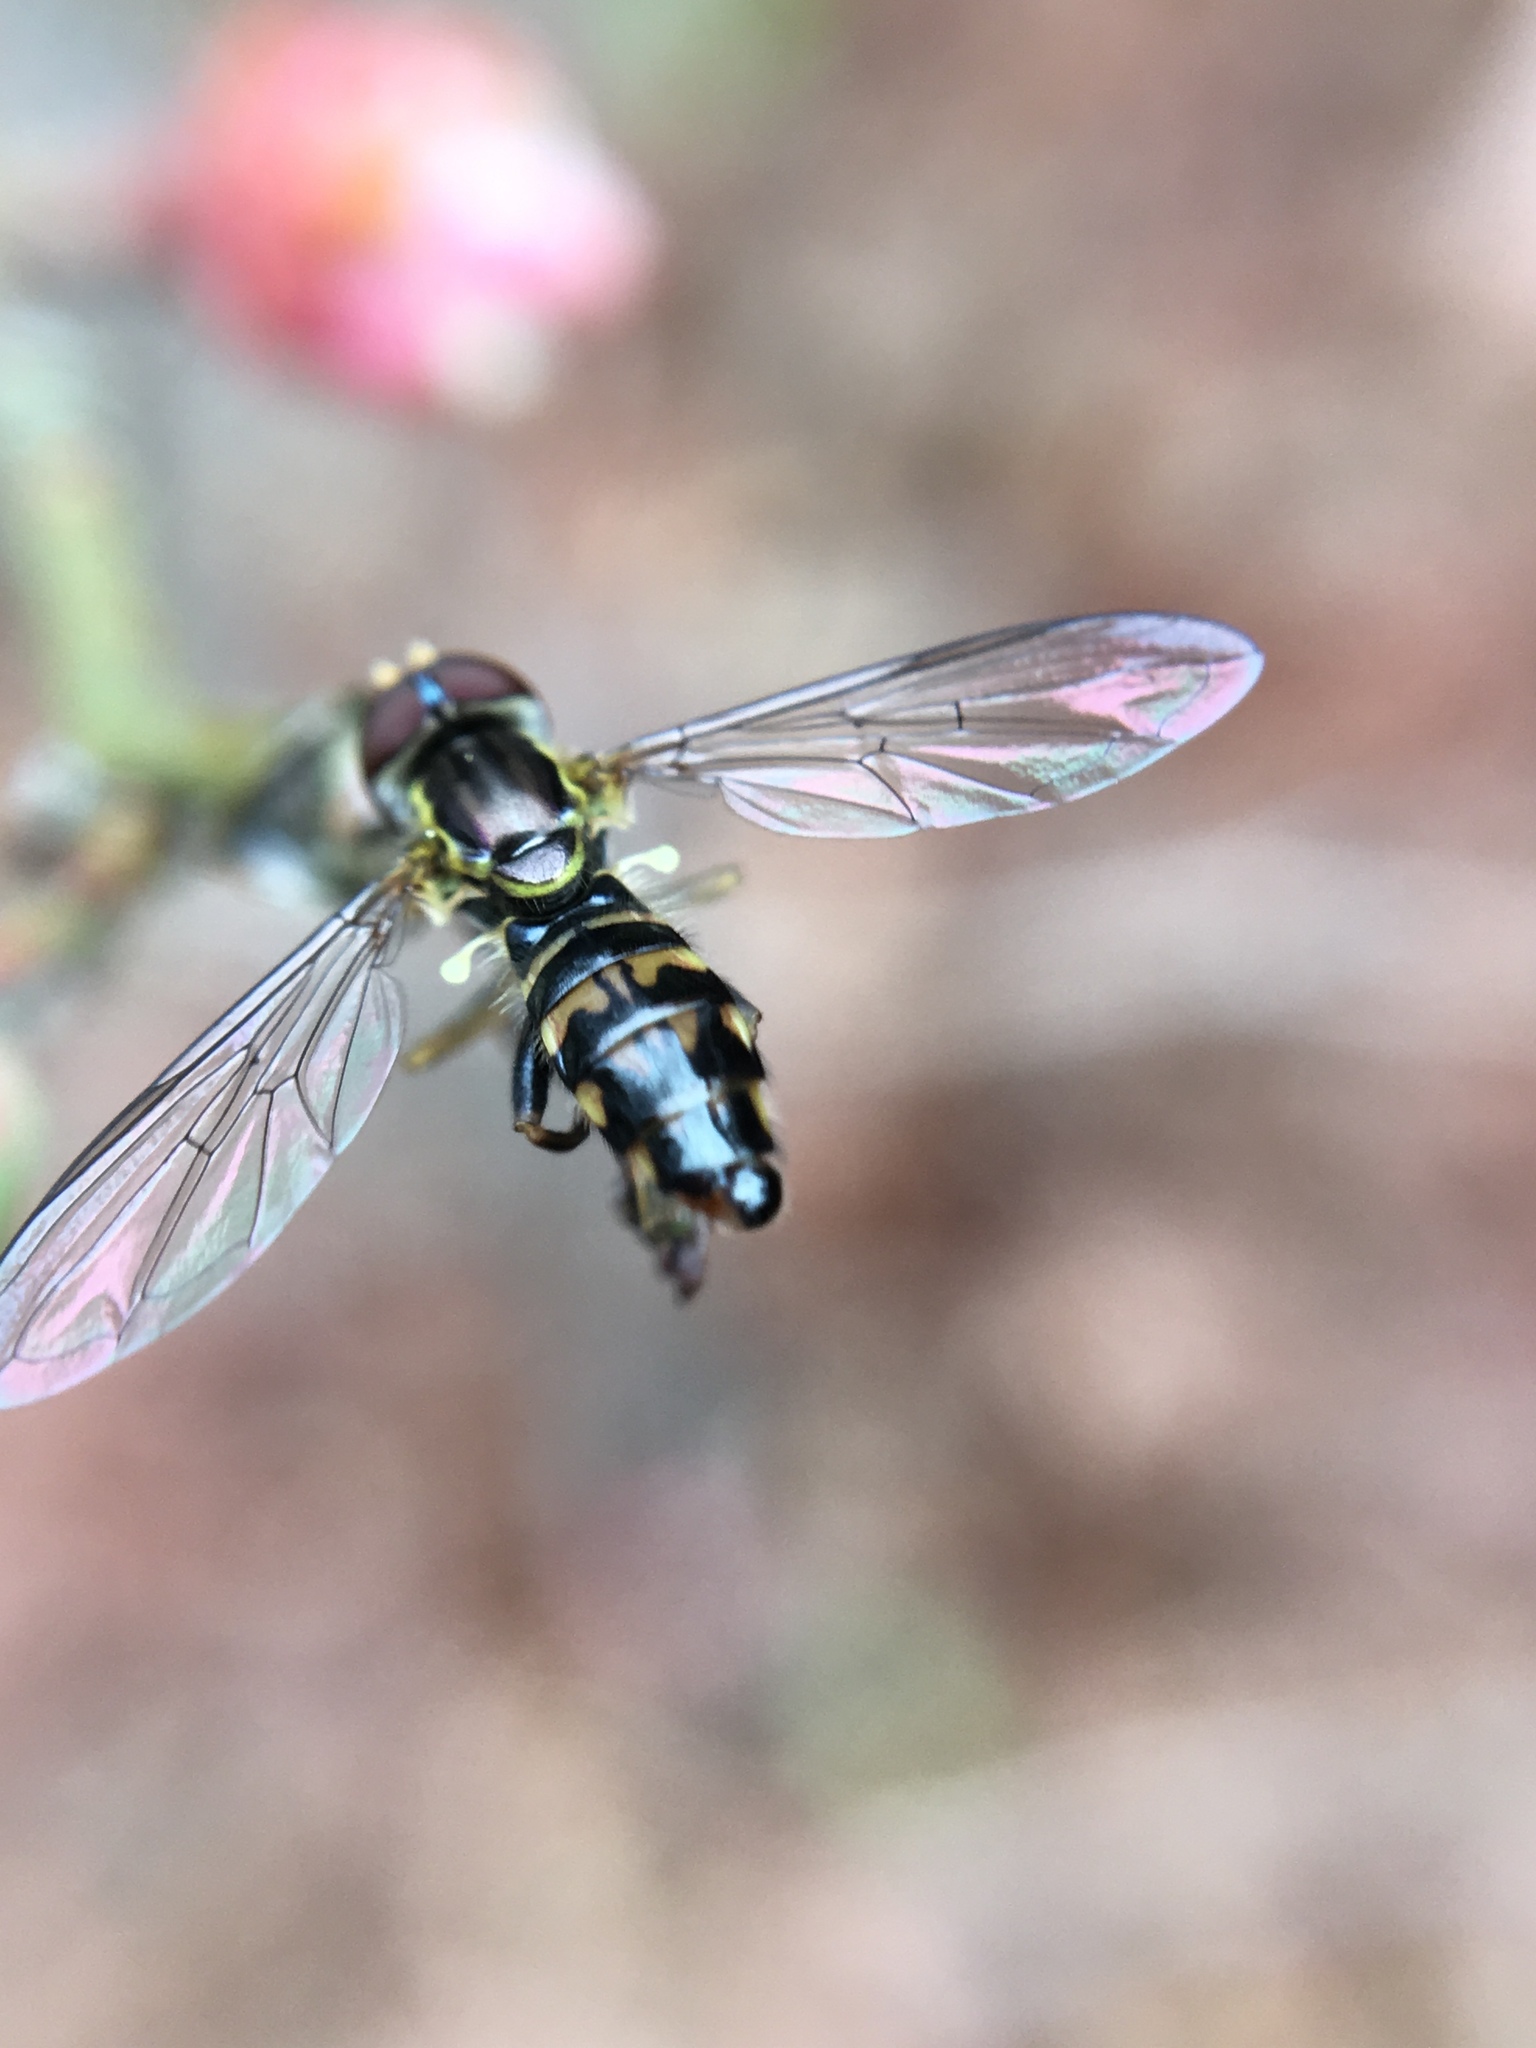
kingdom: Animalia
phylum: Arthropoda
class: Insecta
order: Diptera
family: Syrphidae
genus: Toxomerus
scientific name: Toxomerus geminatus
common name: Eastern calligrapher
